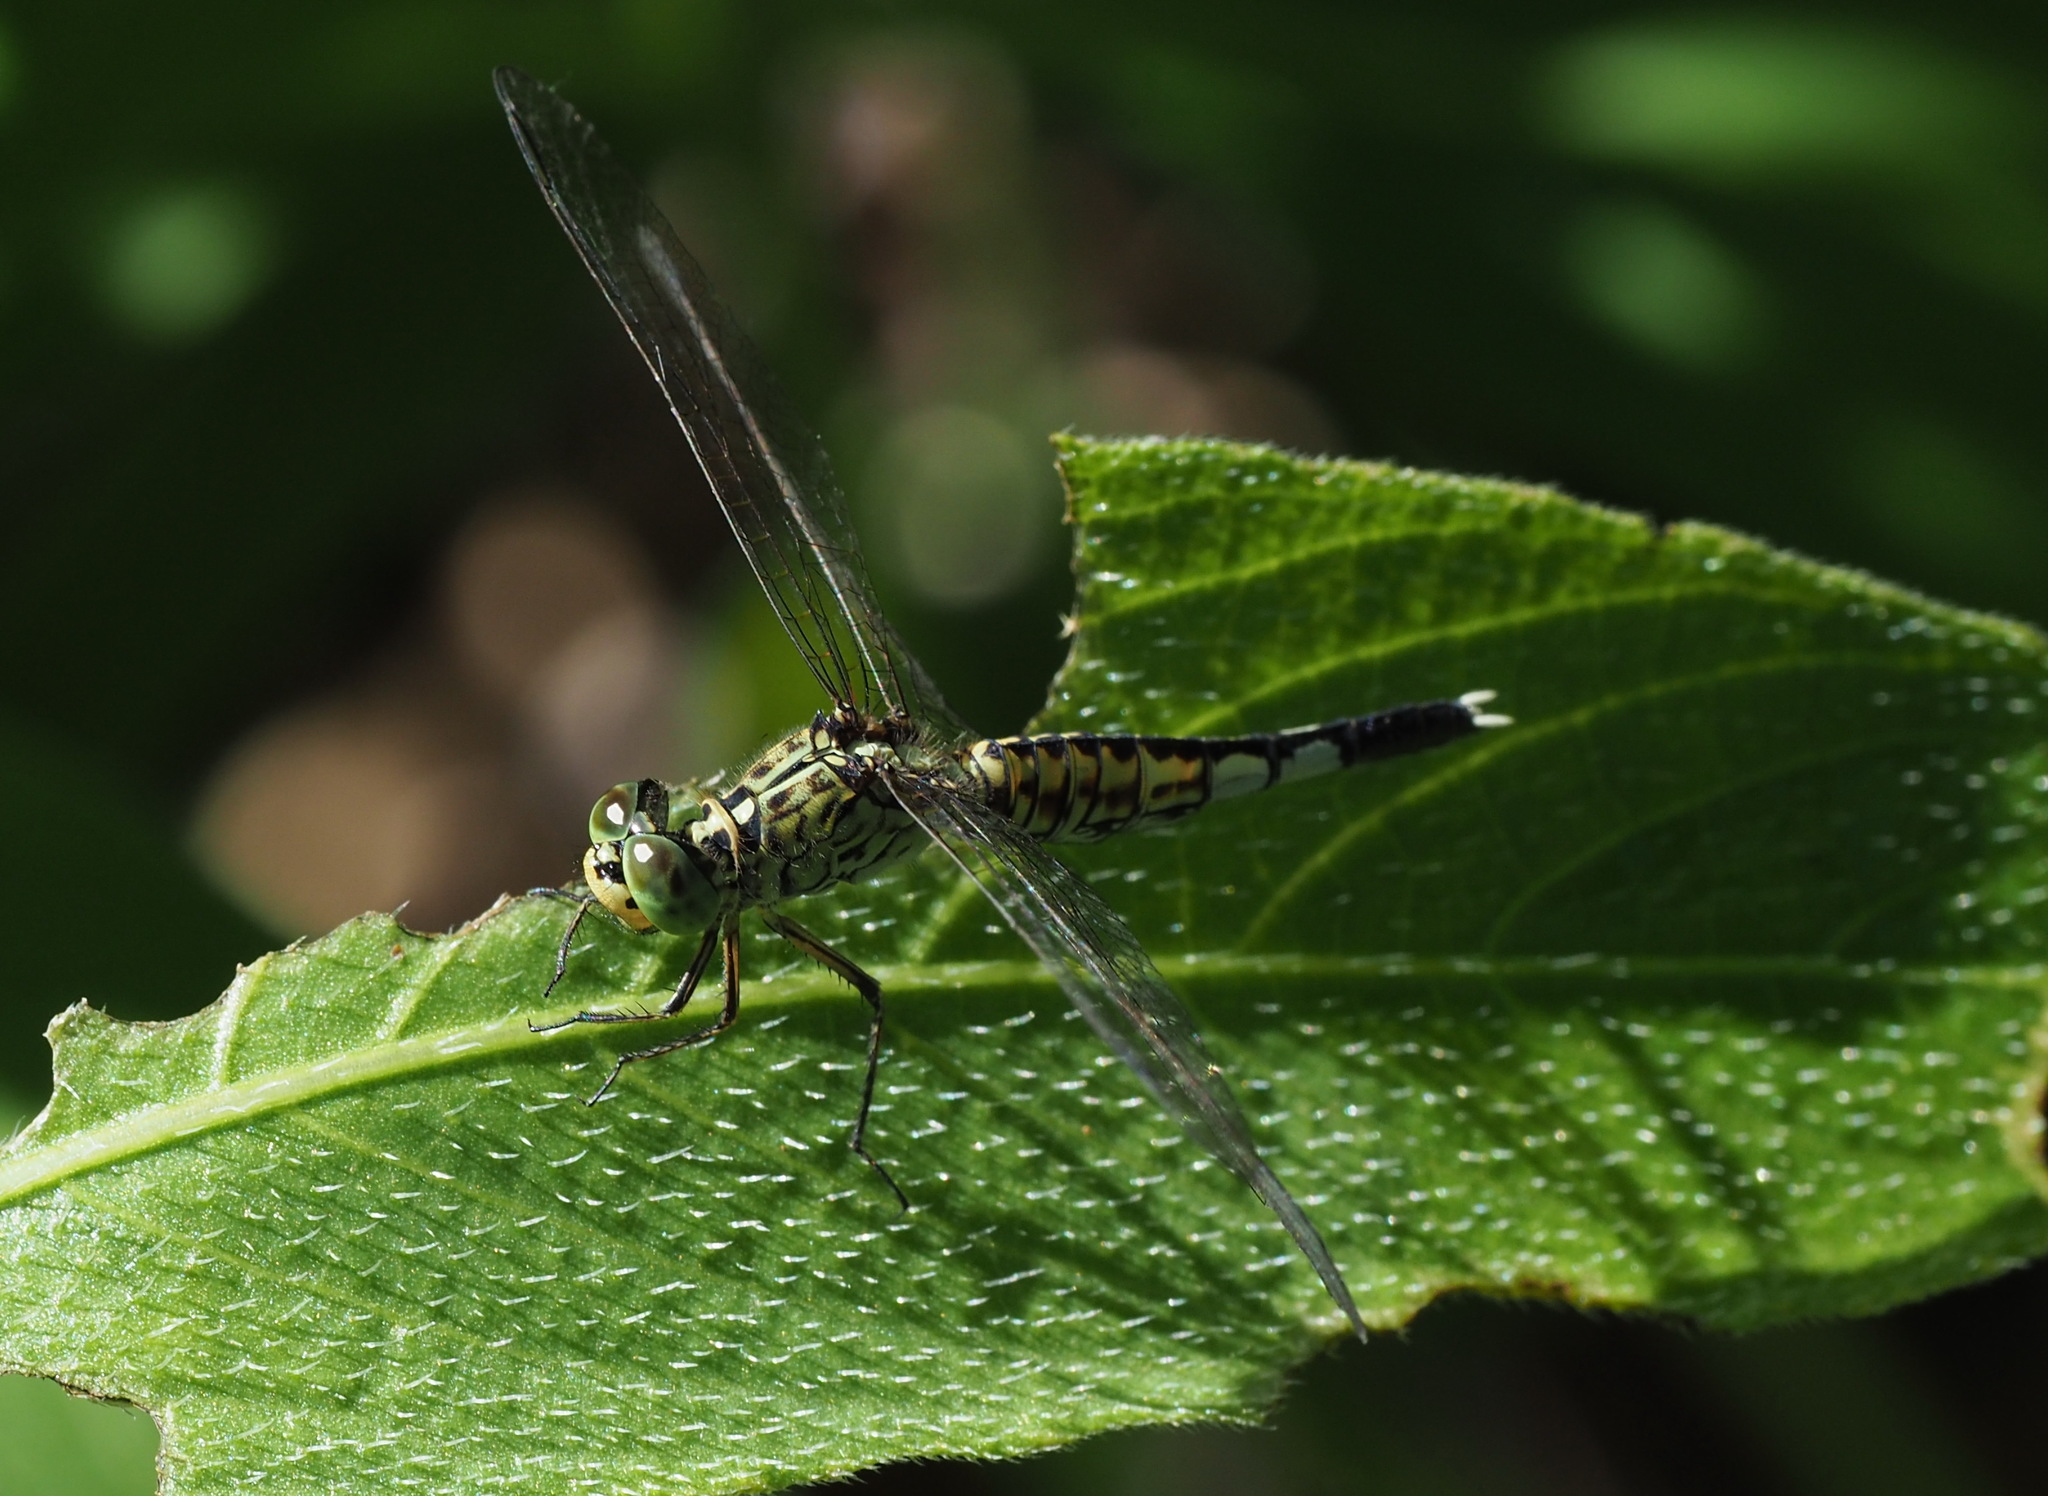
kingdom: Animalia
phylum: Arthropoda
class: Insecta
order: Odonata
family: Libellulidae
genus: Acisoma
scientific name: Acisoma panorpoides
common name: Asian pintail
